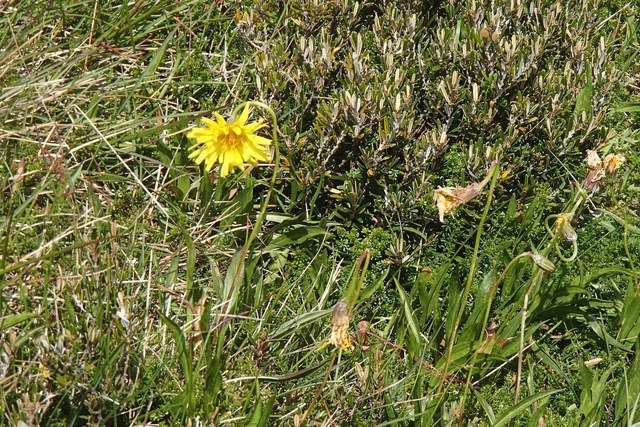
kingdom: Plantae
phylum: Tracheophyta
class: Magnoliopsida
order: Asterales
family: Asteraceae
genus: Microseris
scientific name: Microseris lanceolata
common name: Yam daisy
